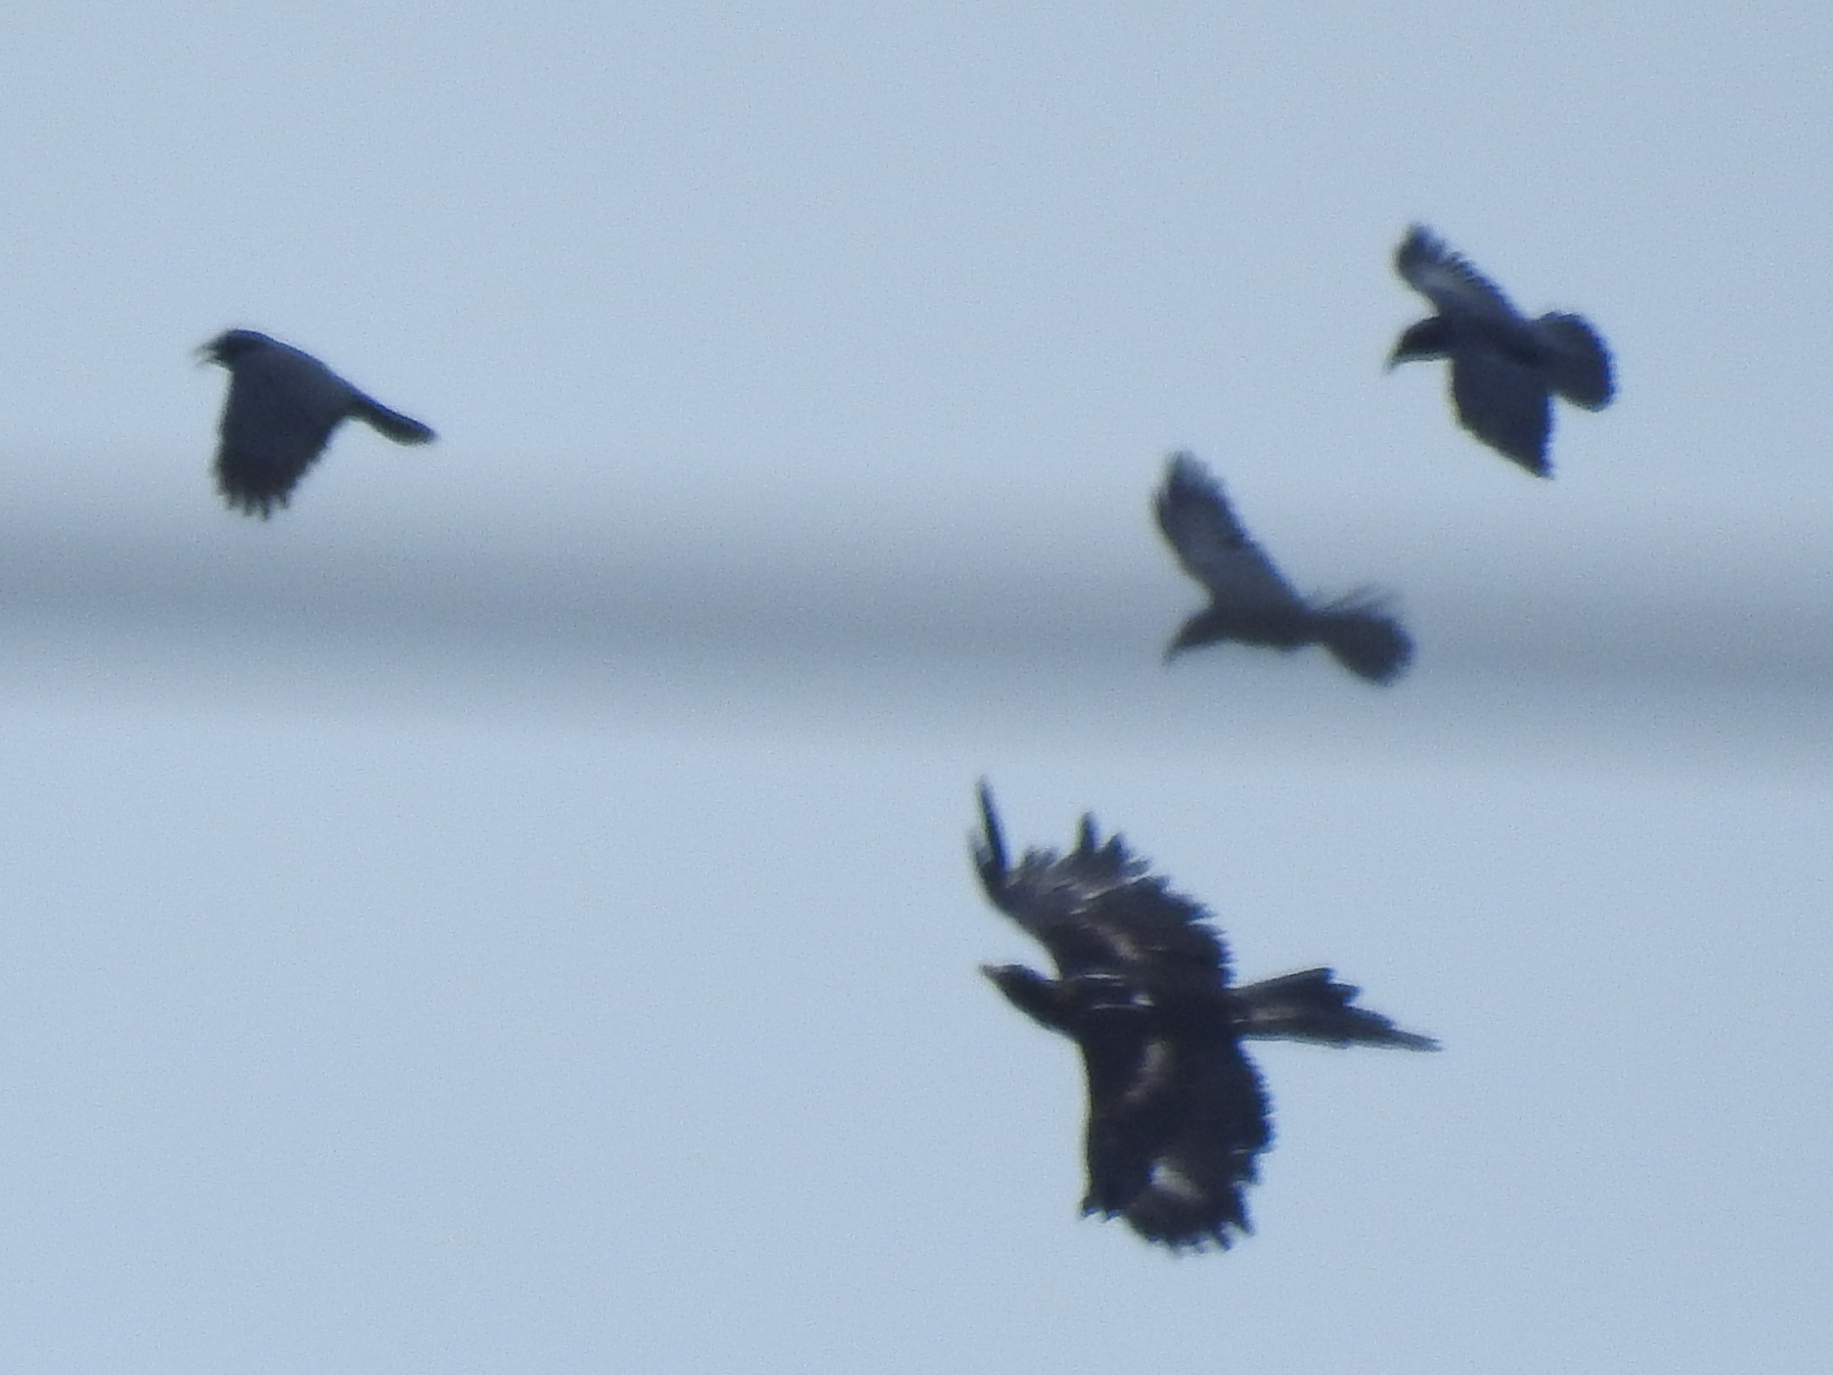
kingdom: Animalia
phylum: Chordata
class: Aves
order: Accipitriformes
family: Accipitridae
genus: Aquila
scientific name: Aquila audax
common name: Wedge-tailed eagle
